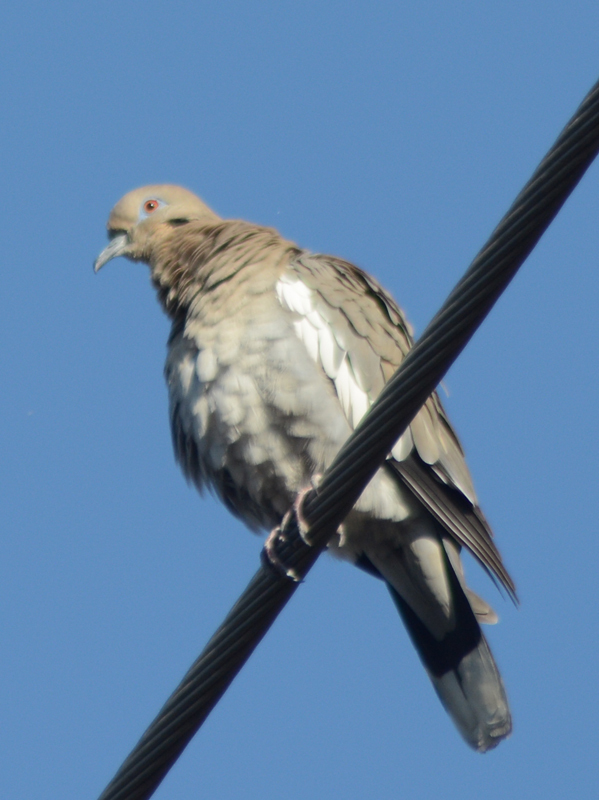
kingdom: Animalia
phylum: Chordata
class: Aves
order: Columbiformes
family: Columbidae
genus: Zenaida
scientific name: Zenaida asiatica
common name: White-winged dove
